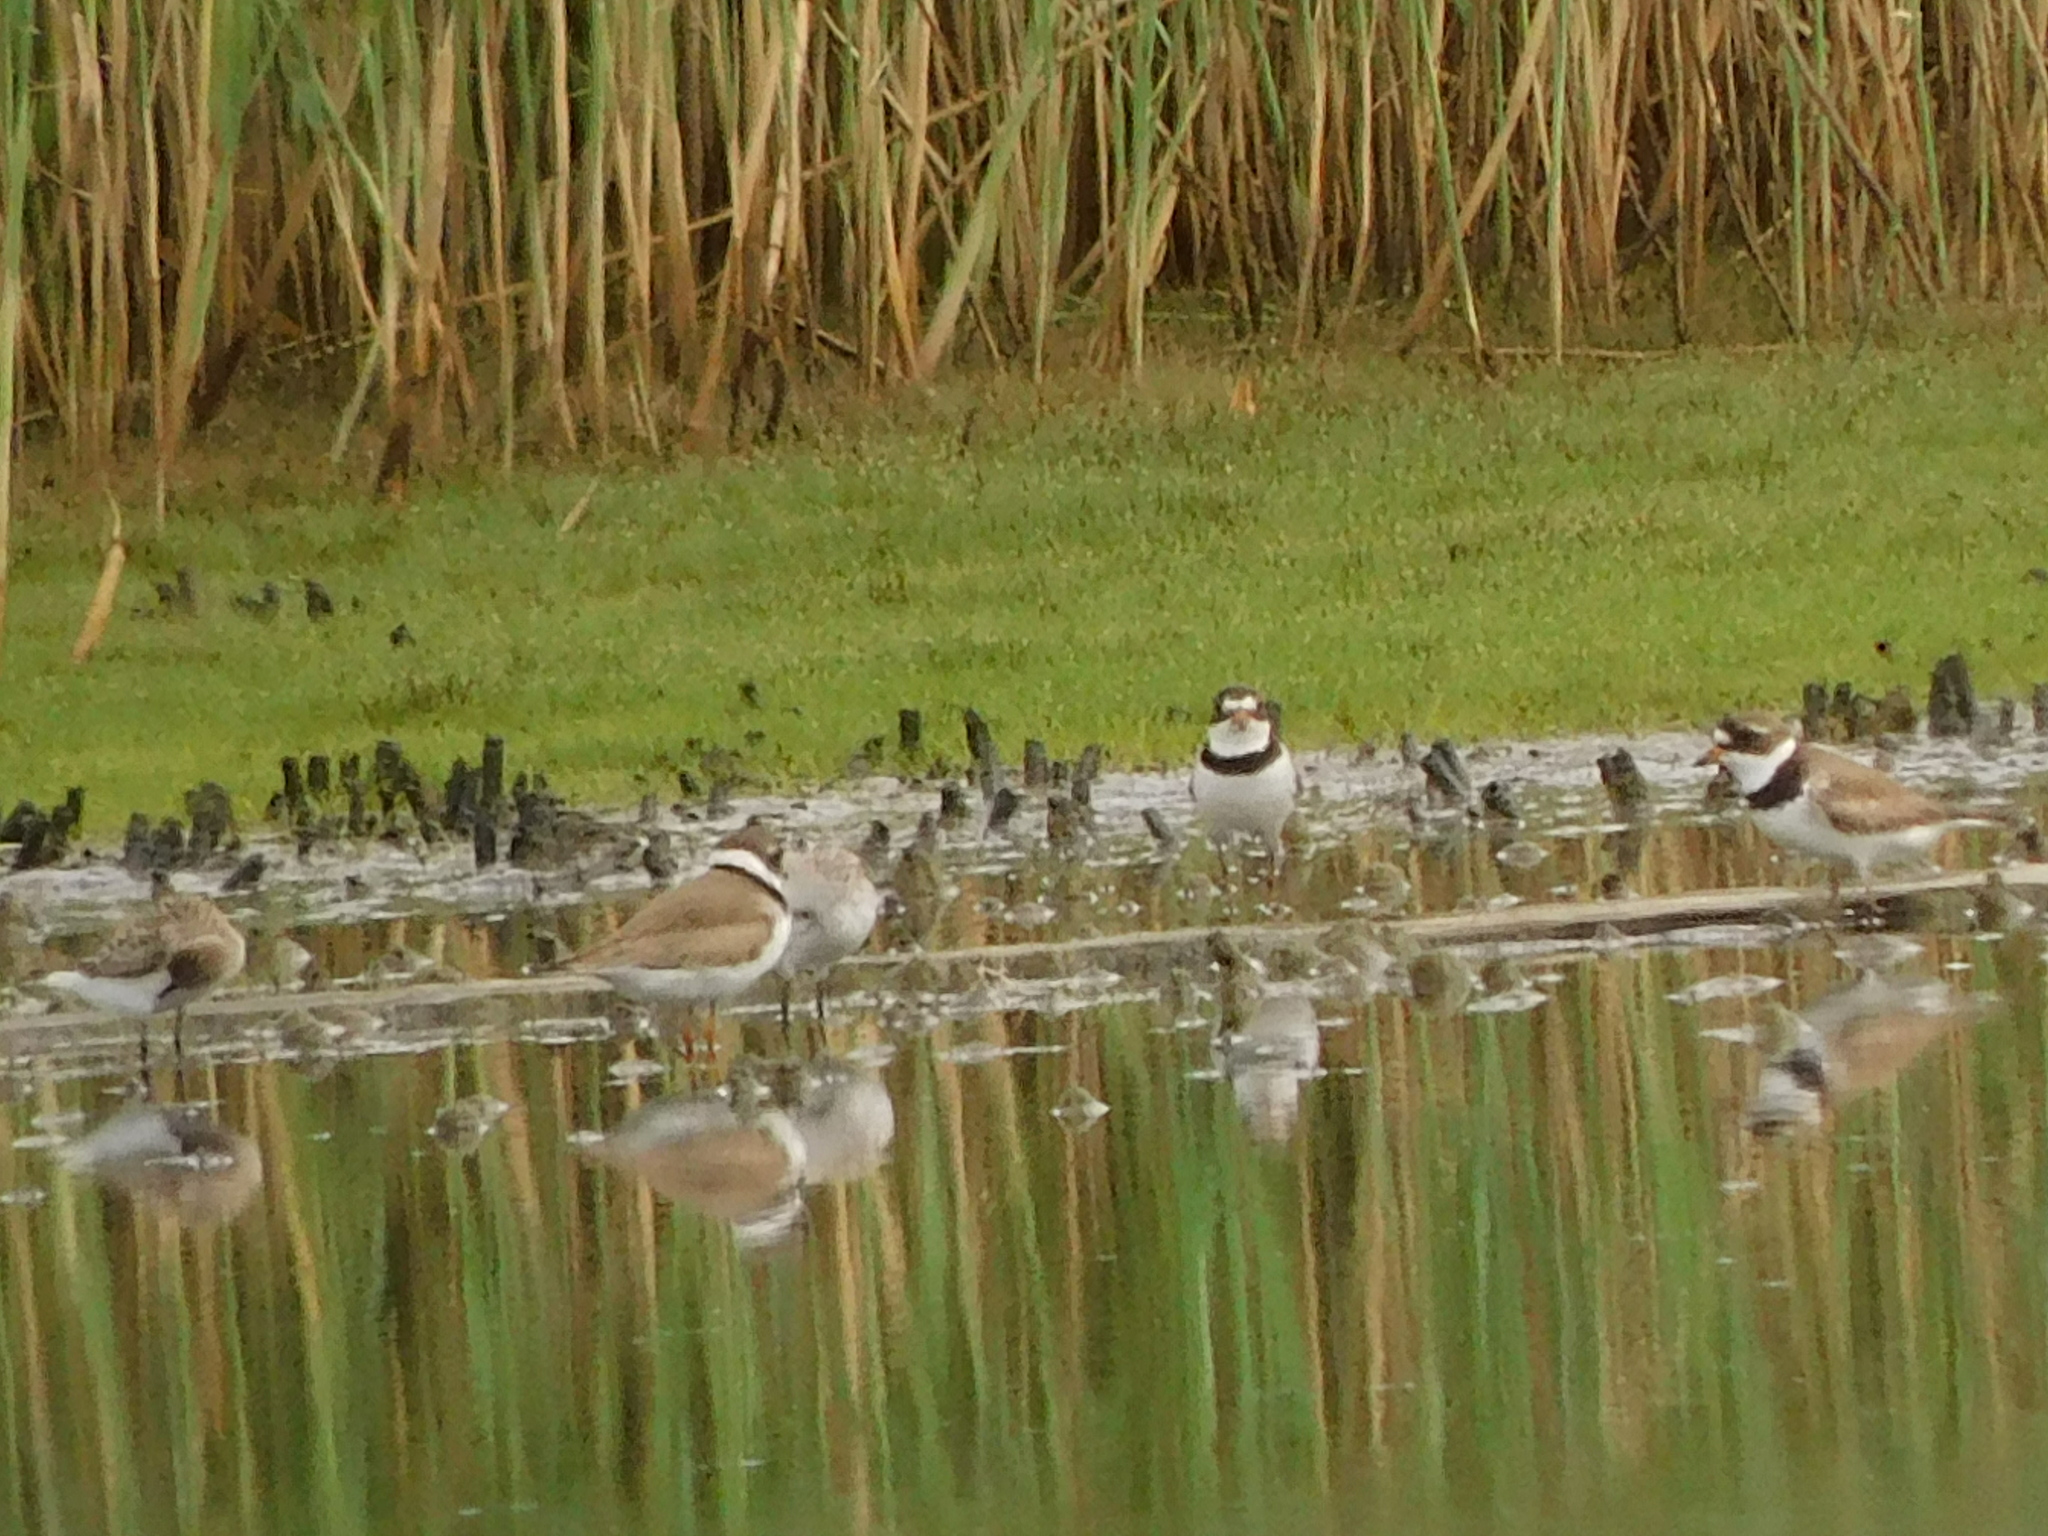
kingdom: Animalia
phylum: Chordata
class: Aves
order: Charadriiformes
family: Charadriidae
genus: Charadrius
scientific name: Charadrius semipalmatus
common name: Semipalmated plover
